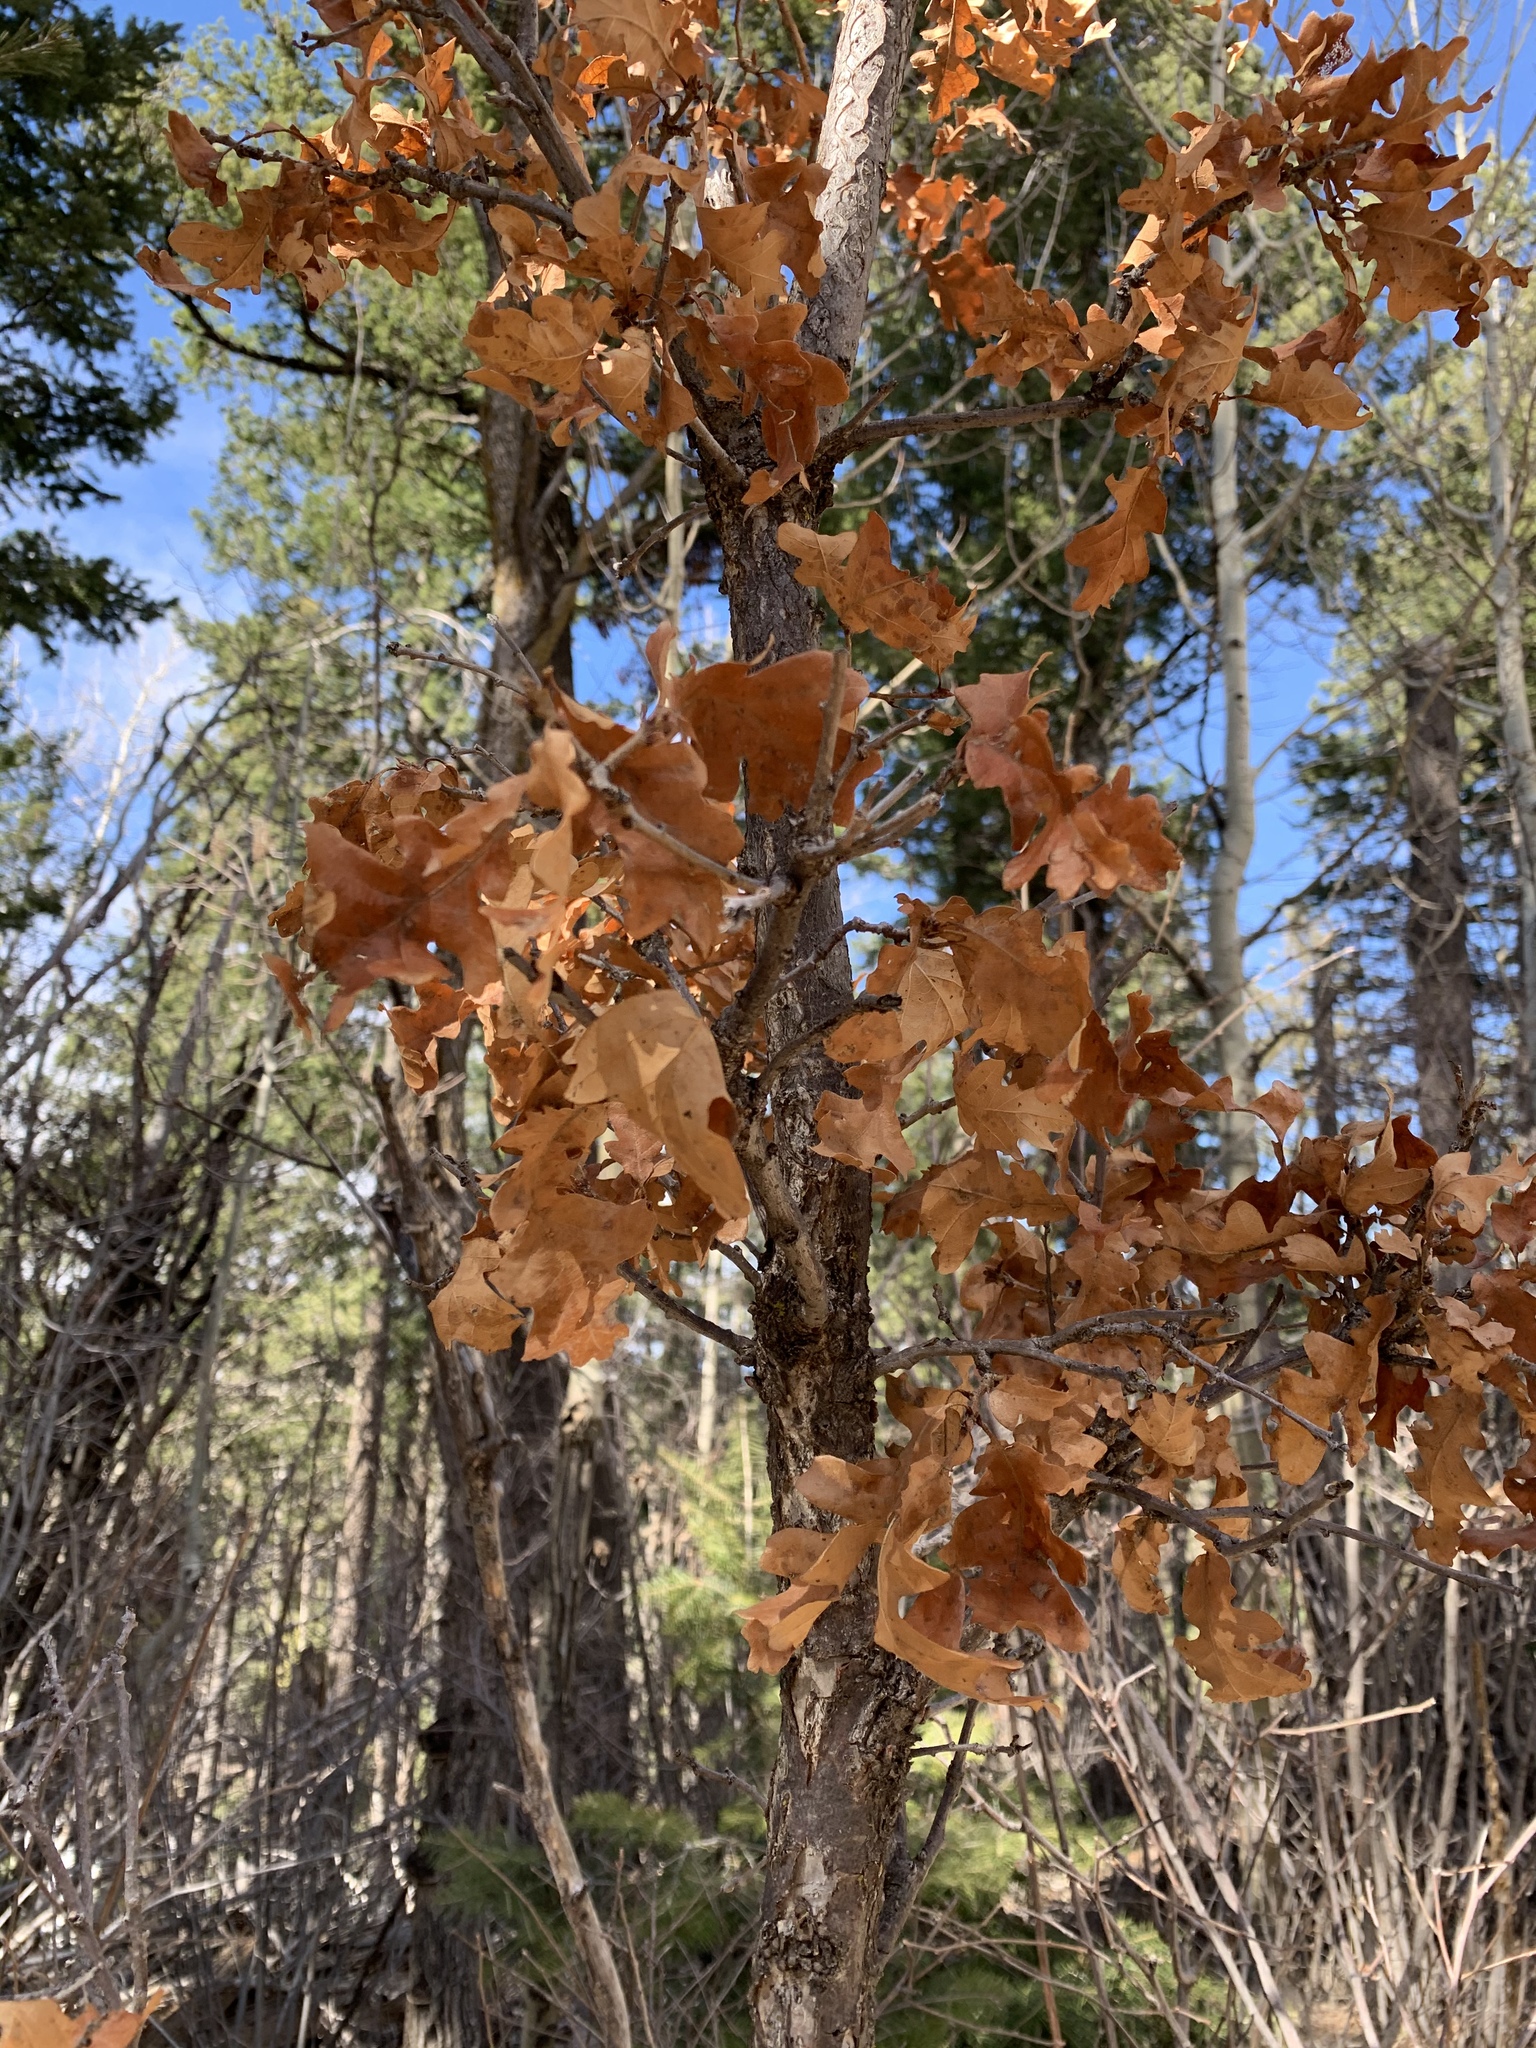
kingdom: Plantae
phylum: Tracheophyta
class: Magnoliopsida
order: Fagales
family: Fagaceae
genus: Quercus
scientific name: Quercus gambelii
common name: Gambel oak
